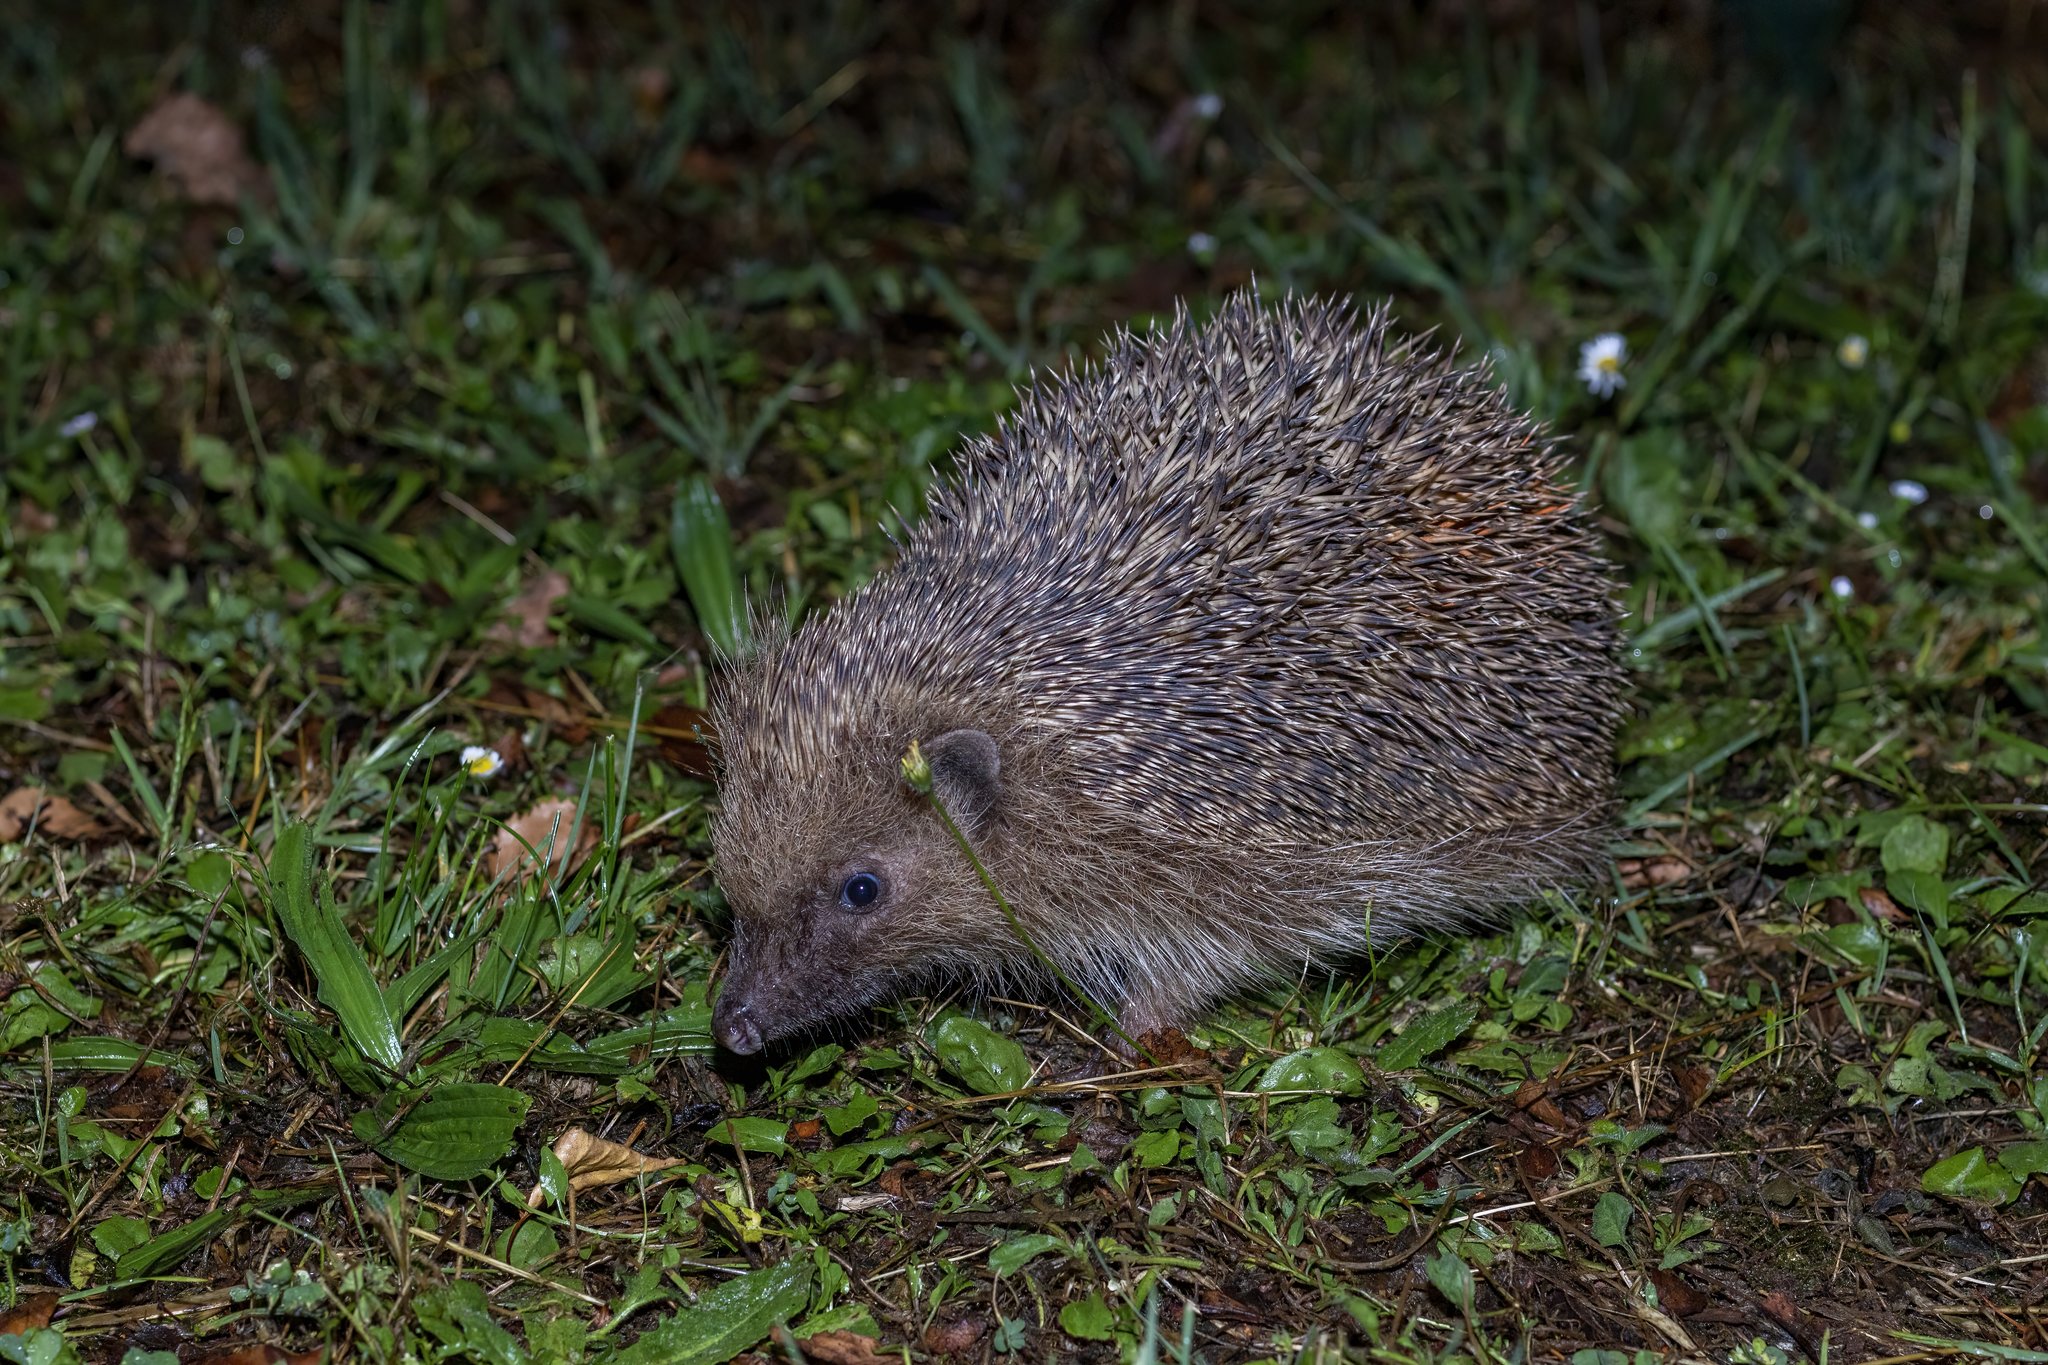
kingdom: Animalia
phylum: Chordata
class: Mammalia
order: Erinaceomorpha
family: Erinaceidae
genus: Erinaceus
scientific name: Erinaceus europaeus
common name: West european hedgehog
